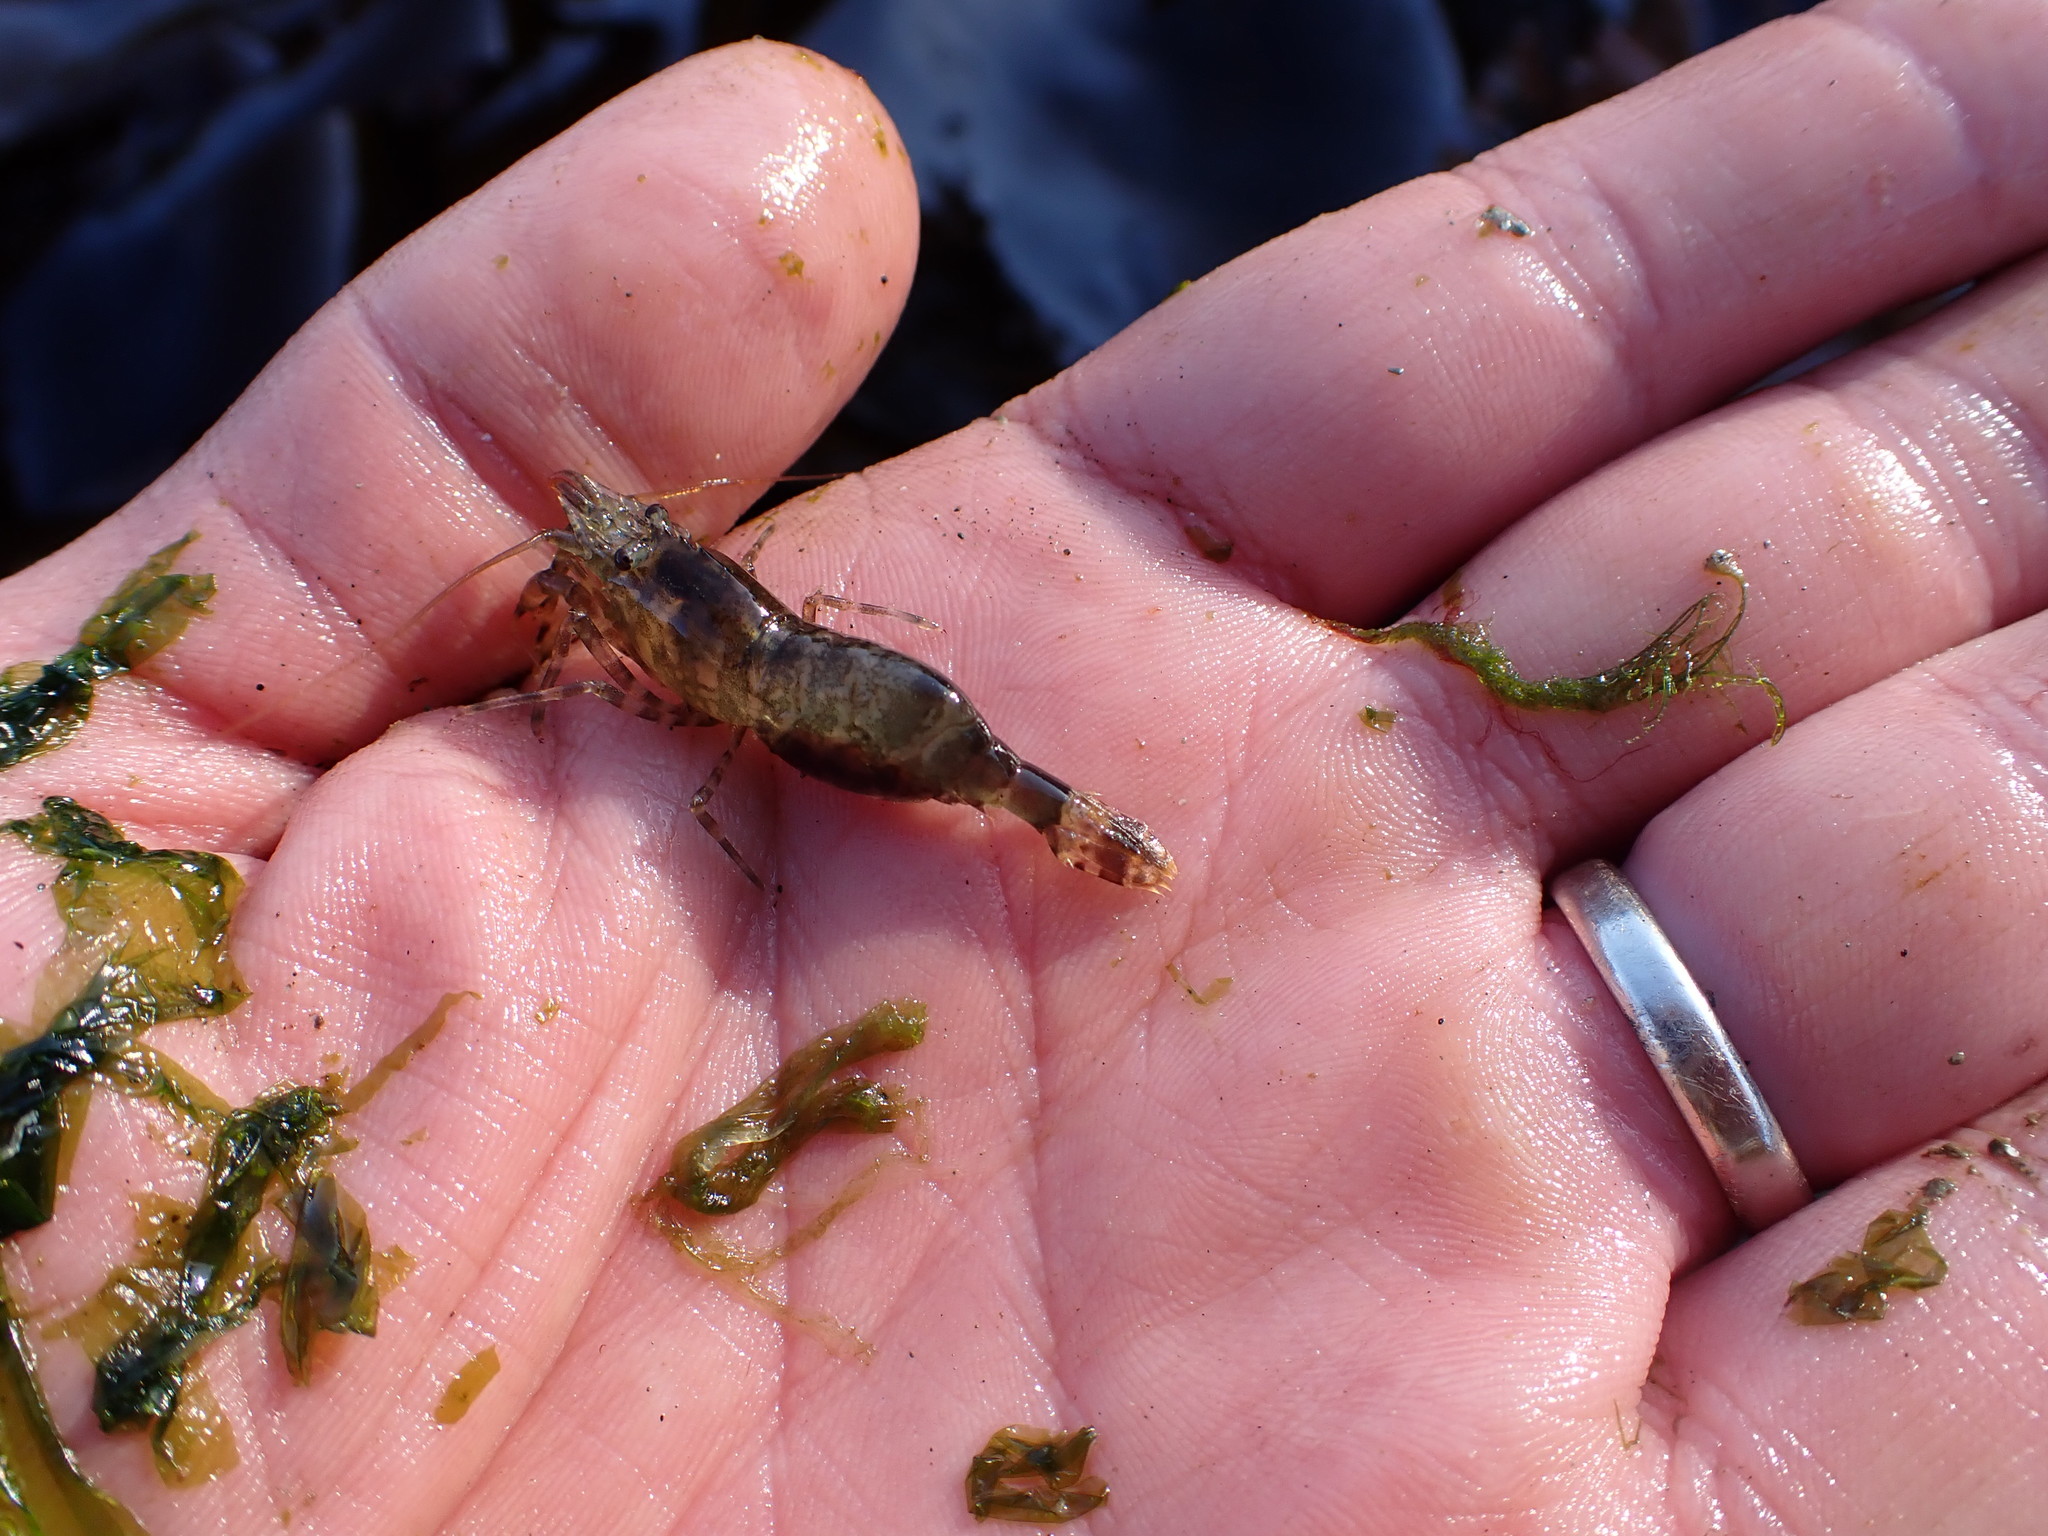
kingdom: Animalia
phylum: Arthropoda
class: Malacostraca
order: Decapoda
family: Thoridae
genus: Heptacarpus
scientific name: Heptacarpus brevirostris
